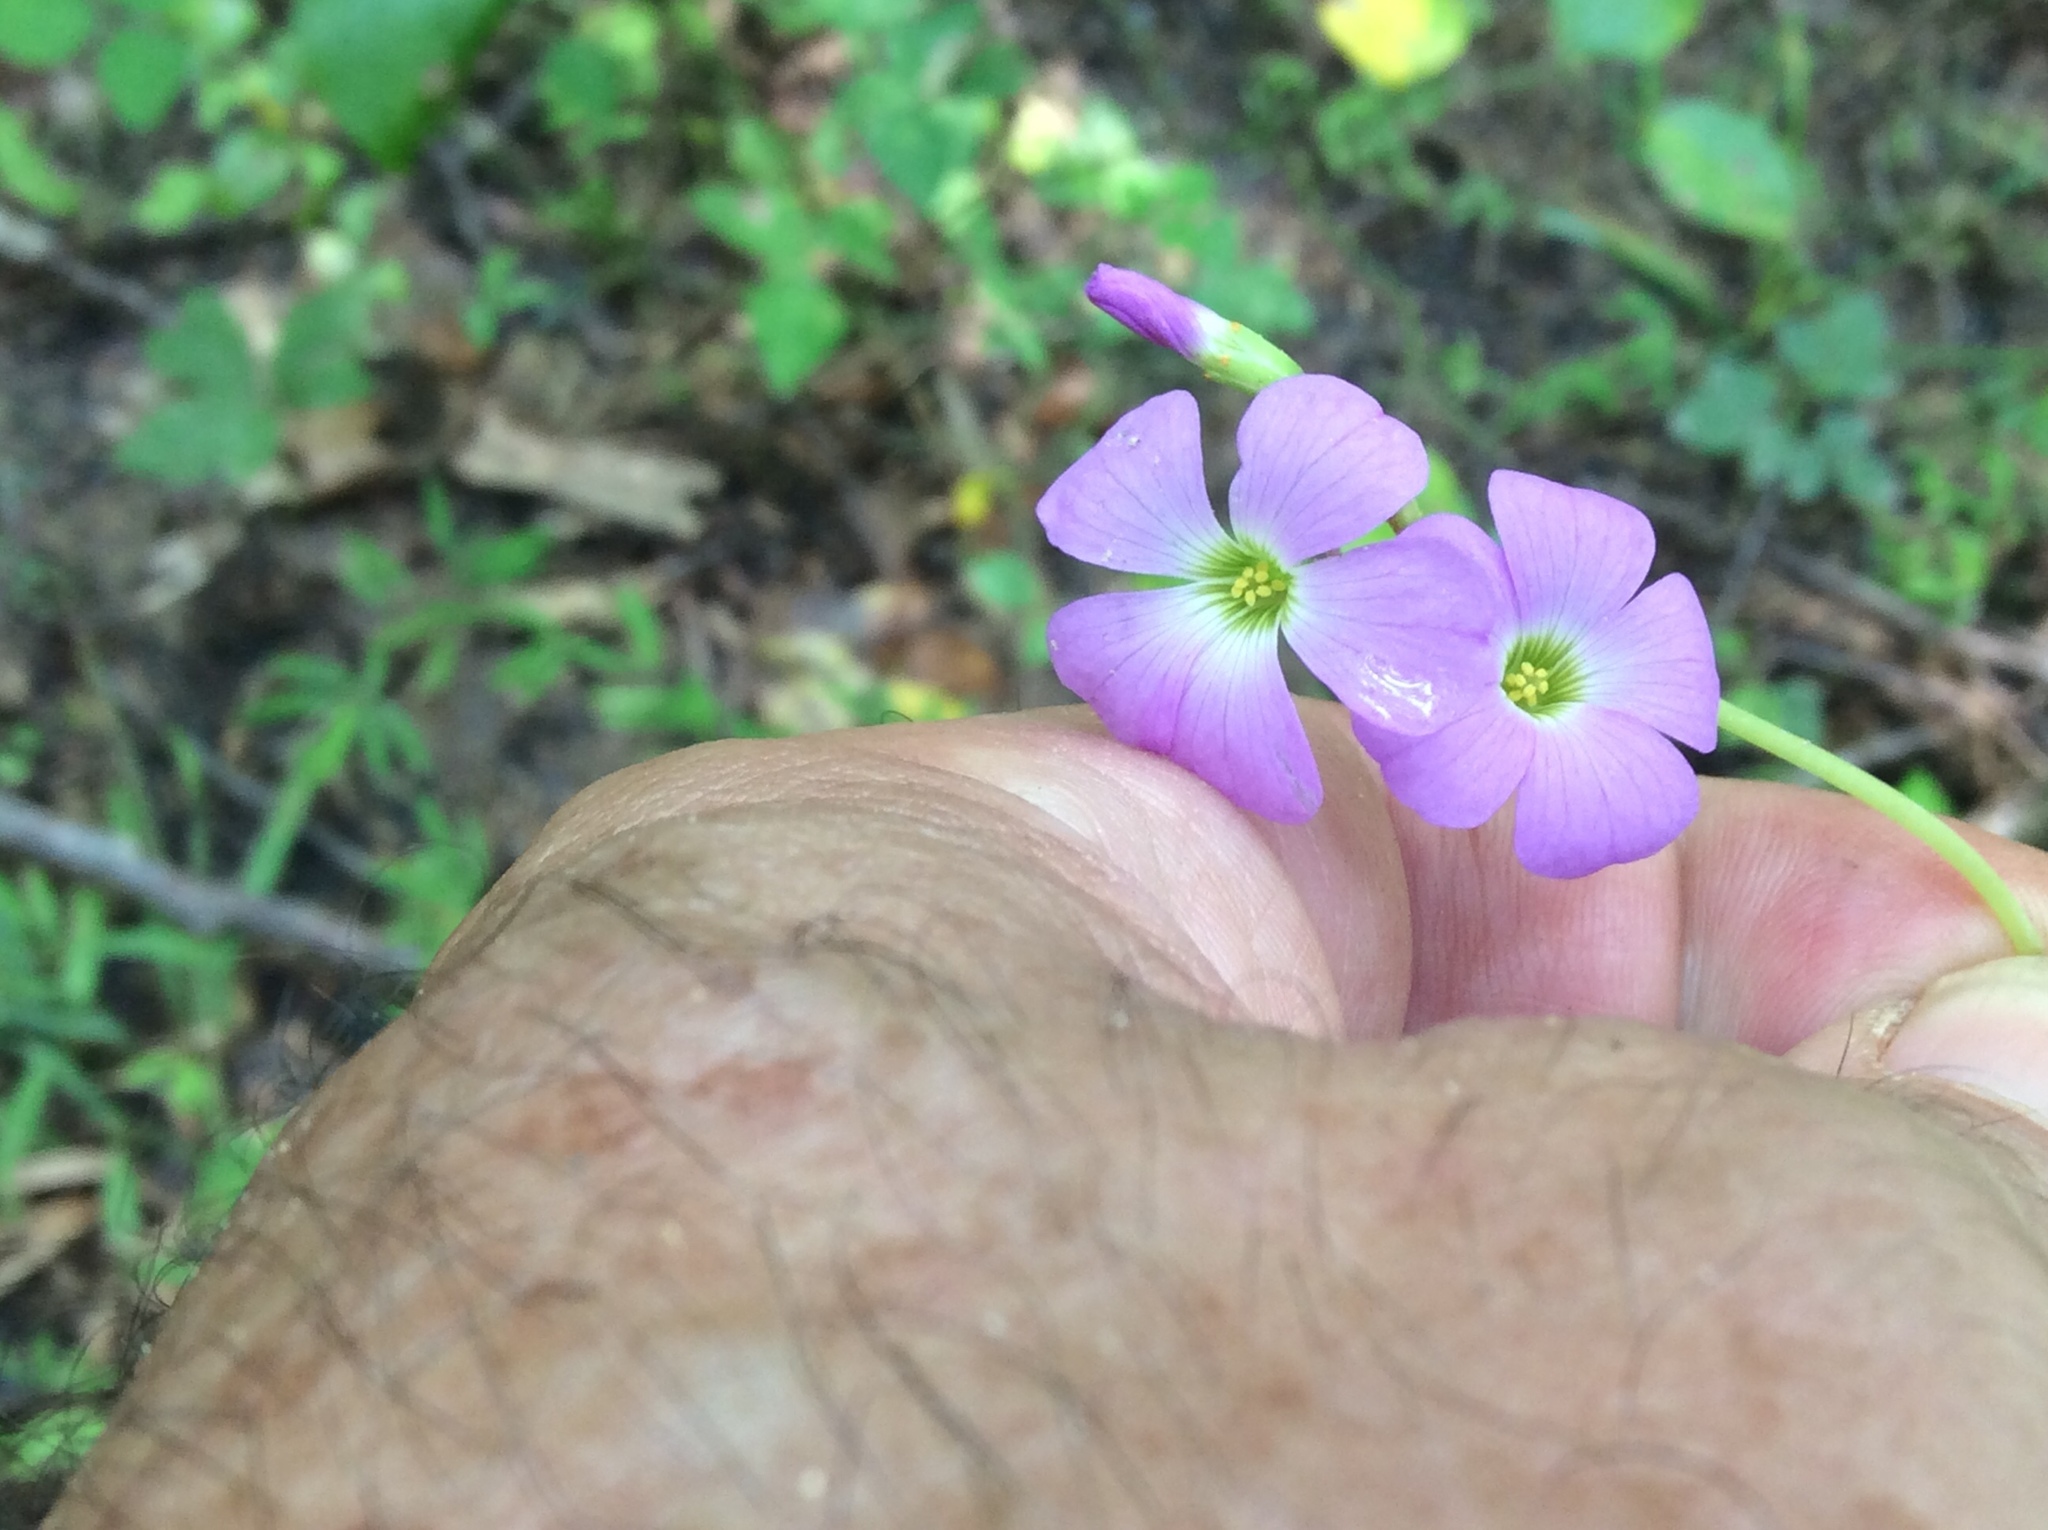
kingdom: Plantae
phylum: Tracheophyta
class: Magnoliopsida
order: Oxalidales
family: Oxalidaceae
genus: Oxalis
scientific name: Oxalis violacea
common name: Violet wood-sorrel
